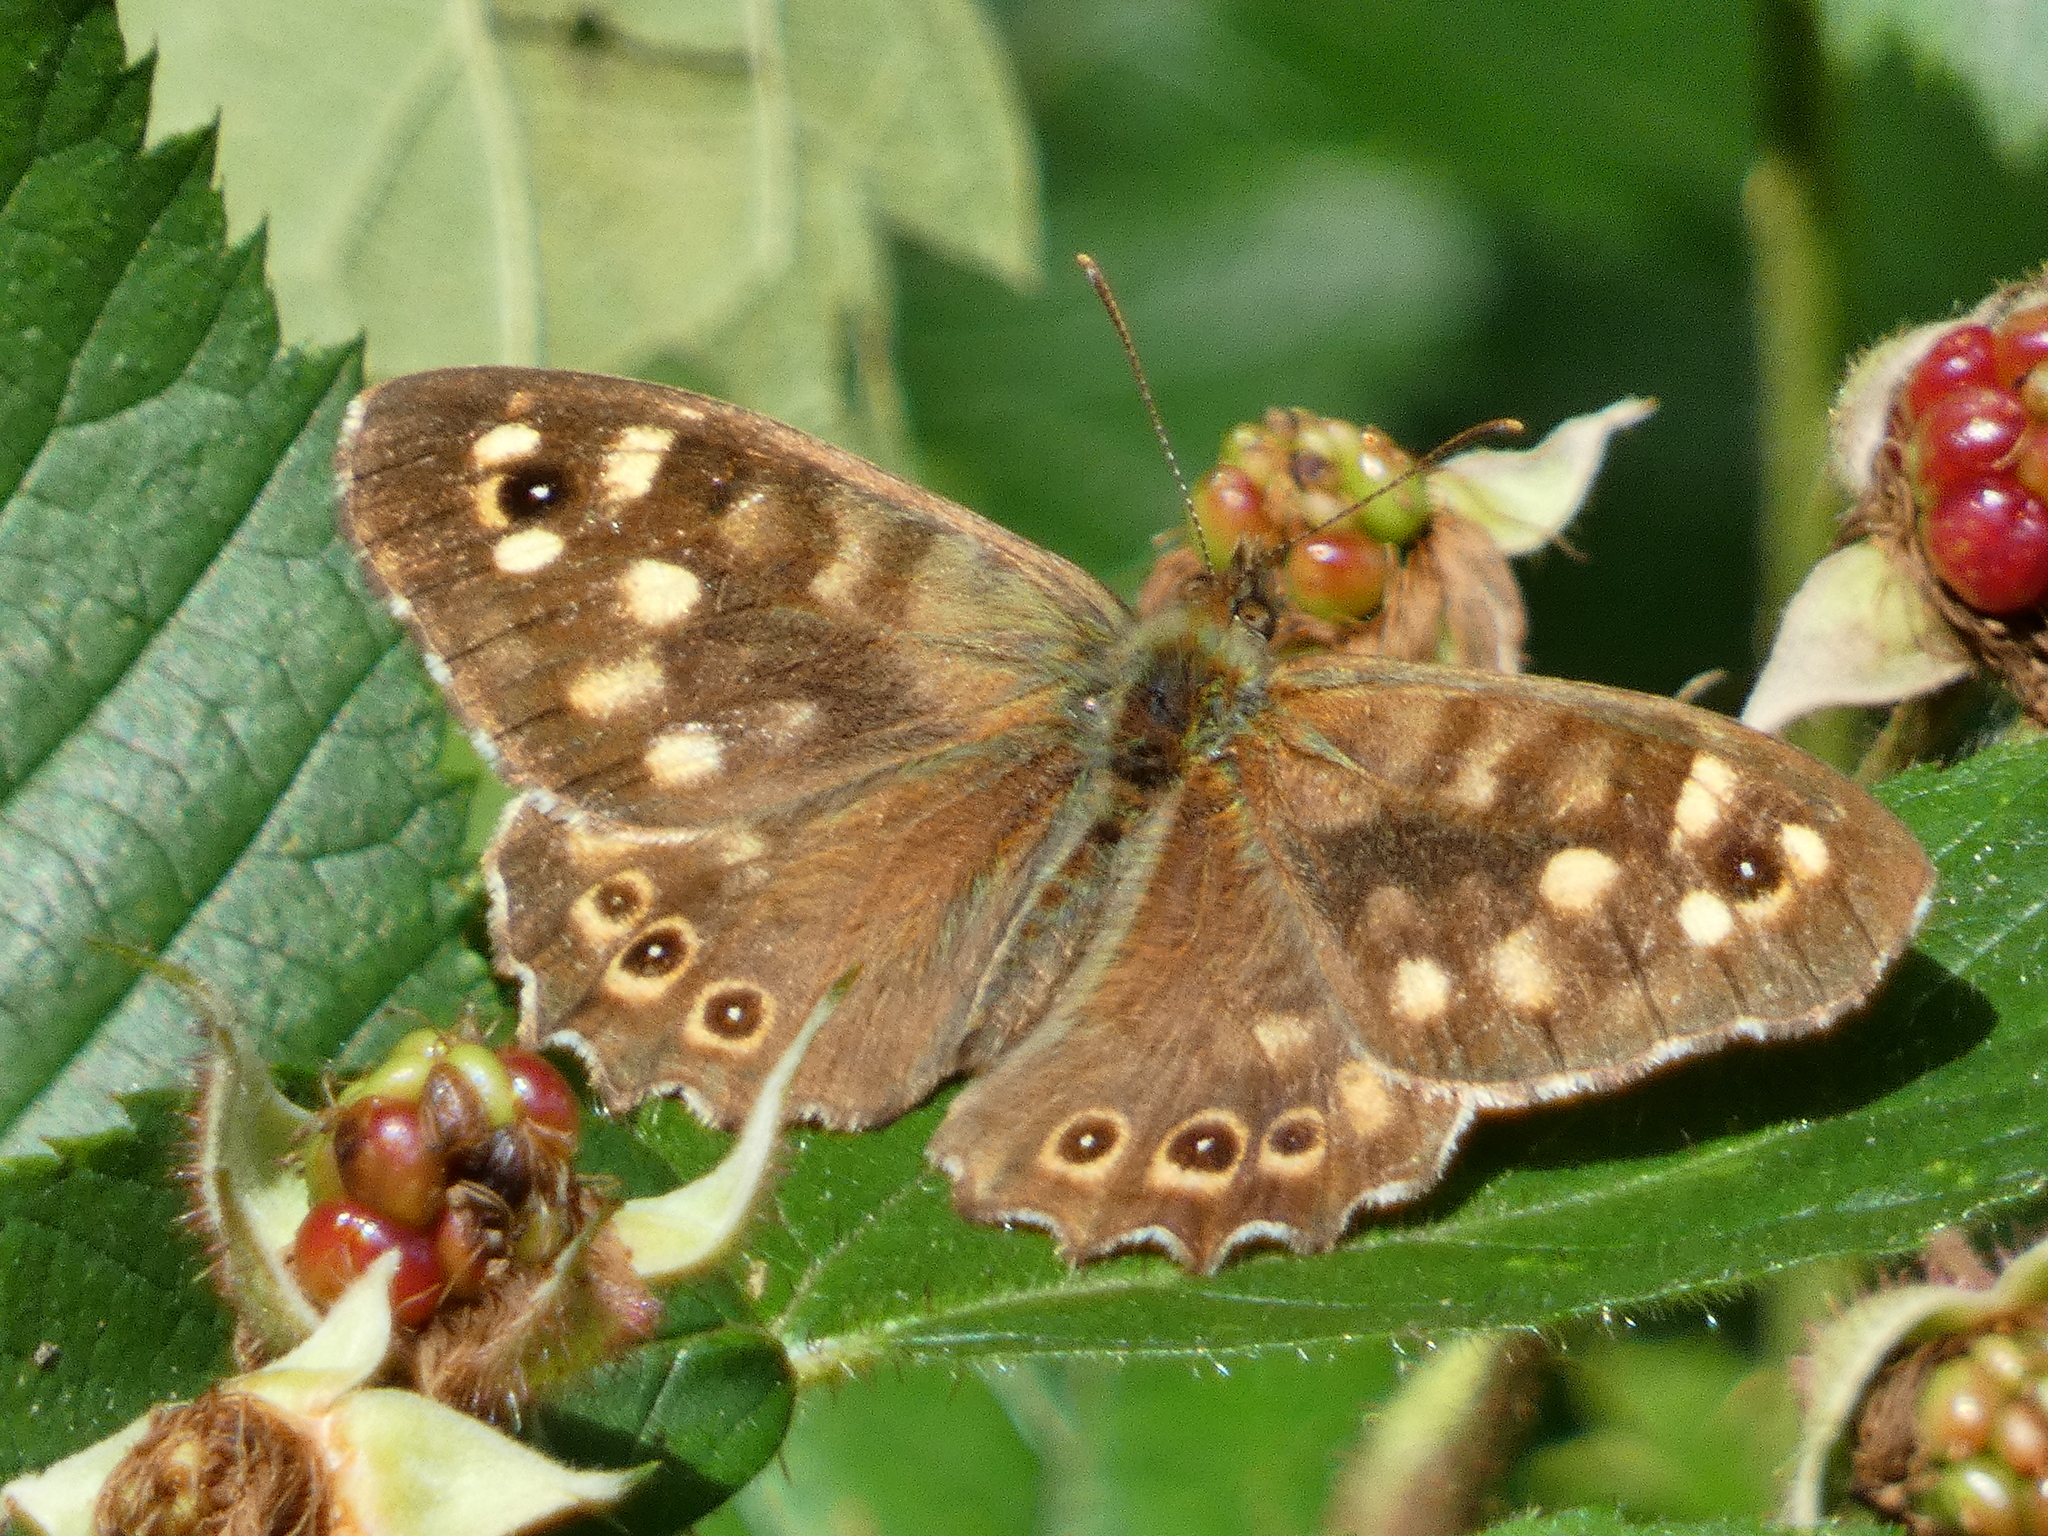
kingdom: Animalia
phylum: Arthropoda
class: Insecta
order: Lepidoptera
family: Nymphalidae
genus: Pararge
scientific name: Pararge aegeria
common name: Speckled wood
